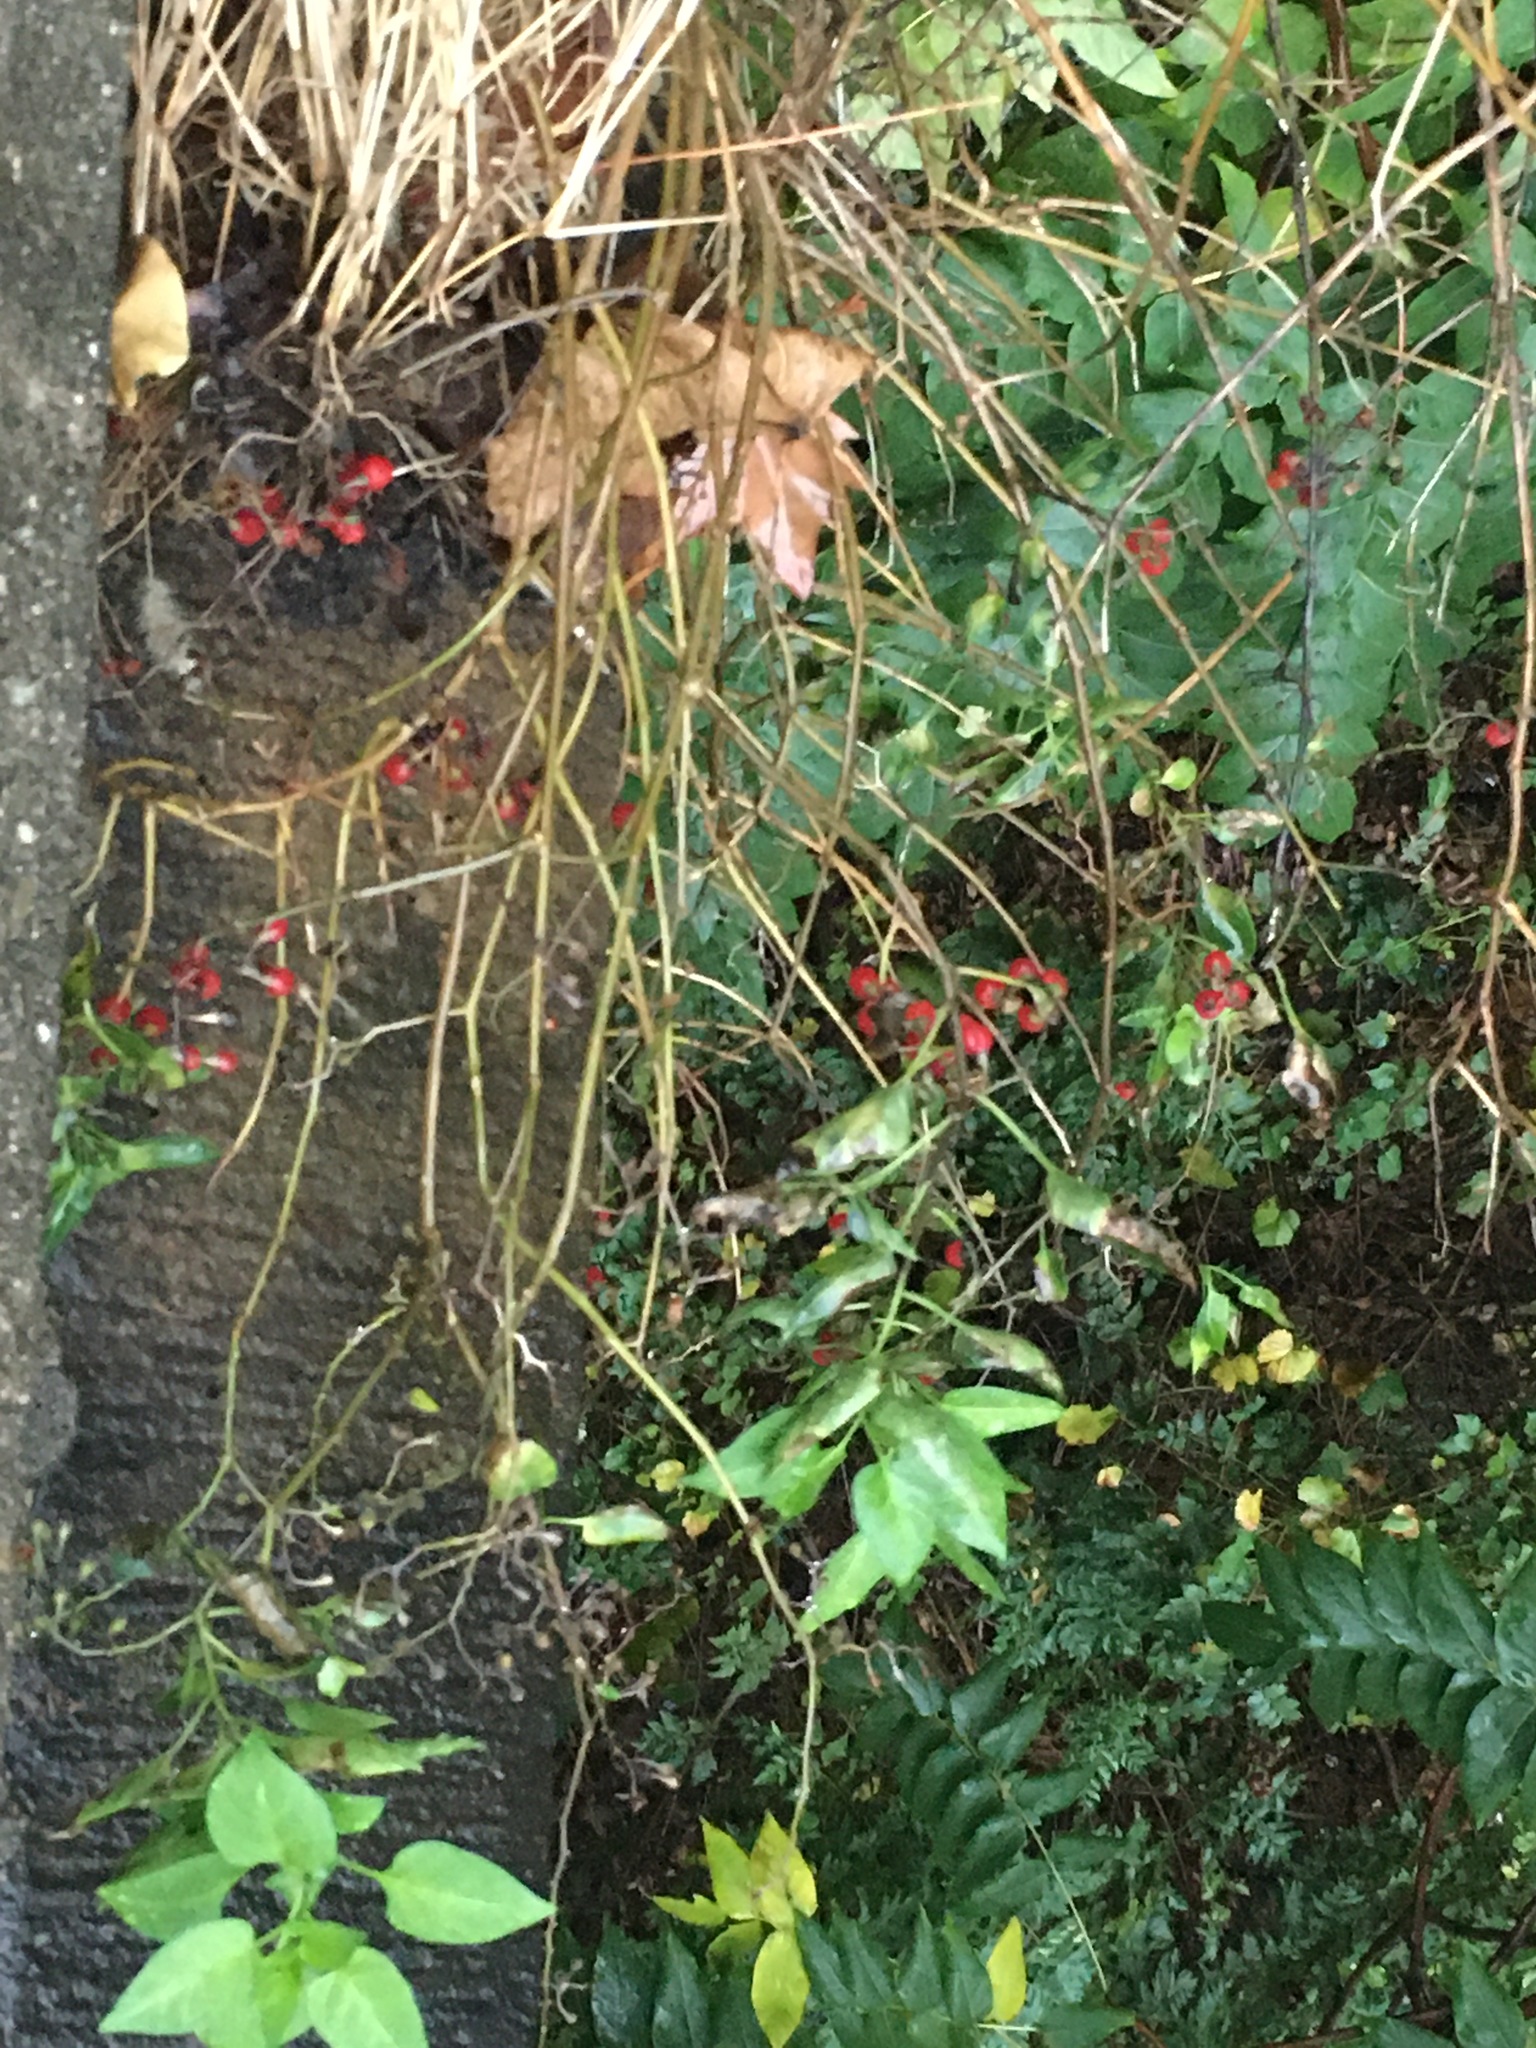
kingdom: Plantae
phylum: Tracheophyta
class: Magnoliopsida
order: Solanales
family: Solanaceae
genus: Solanum
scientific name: Solanum dulcamara
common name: Climbing nightshade
